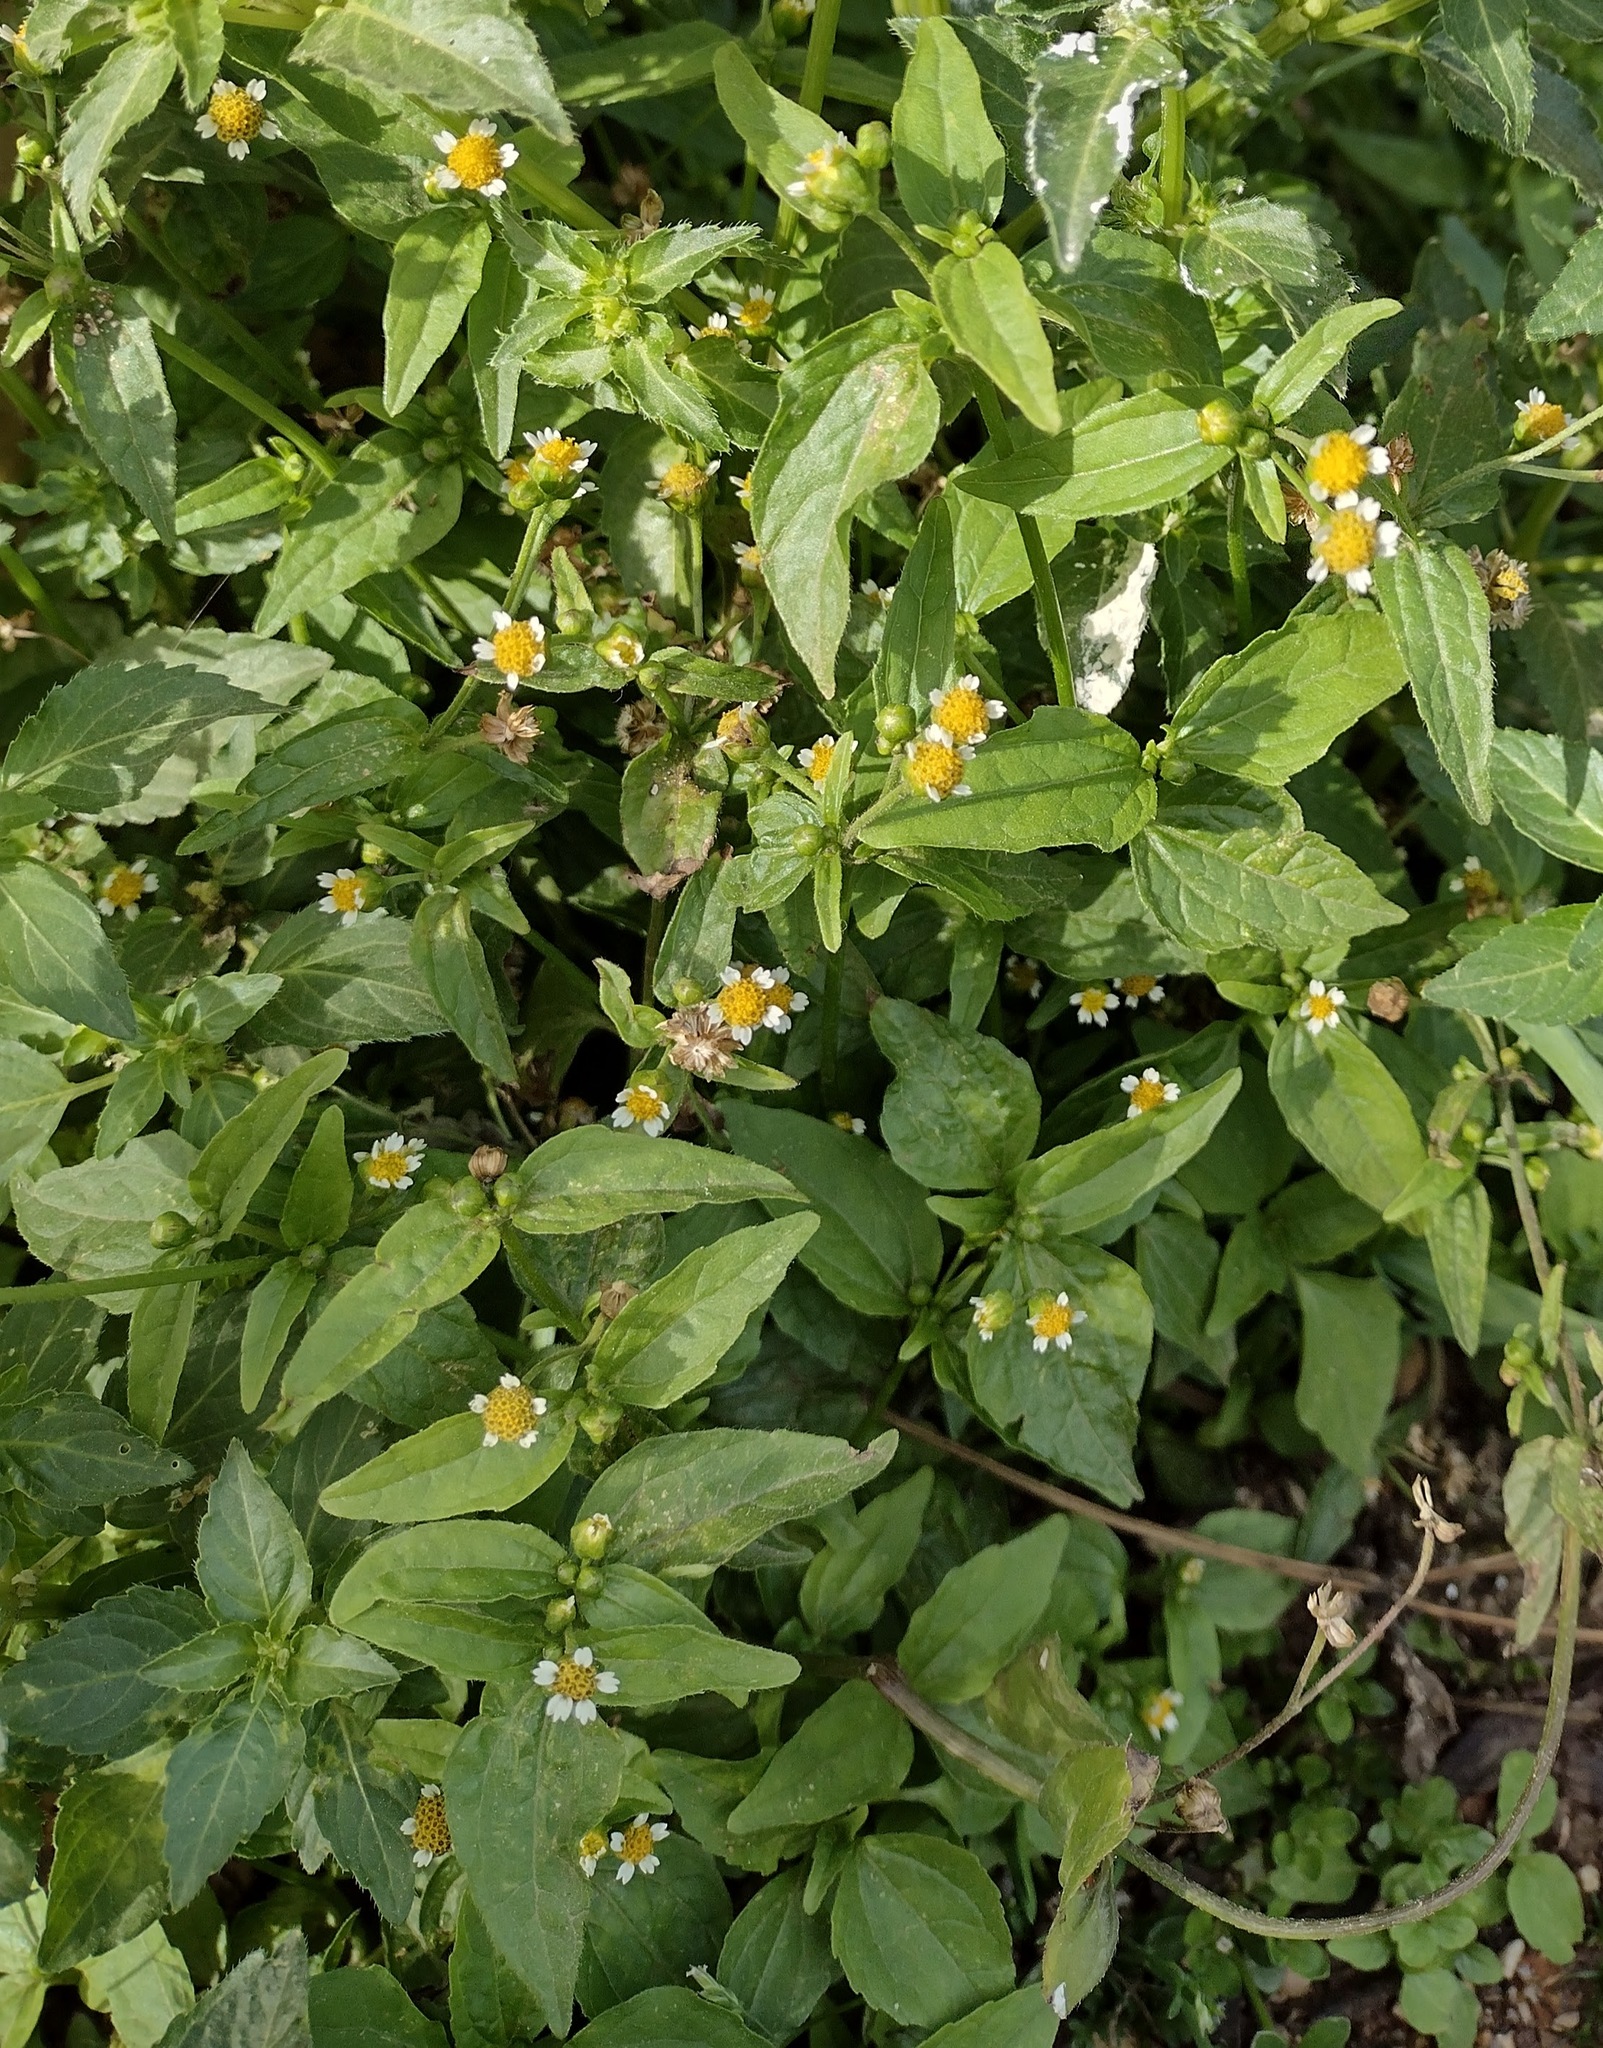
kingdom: Plantae
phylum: Tracheophyta
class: Magnoliopsida
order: Asterales
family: Asteraceae
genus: Galinsoga
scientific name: Galinsoga parviflora
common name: Gallant soldier
